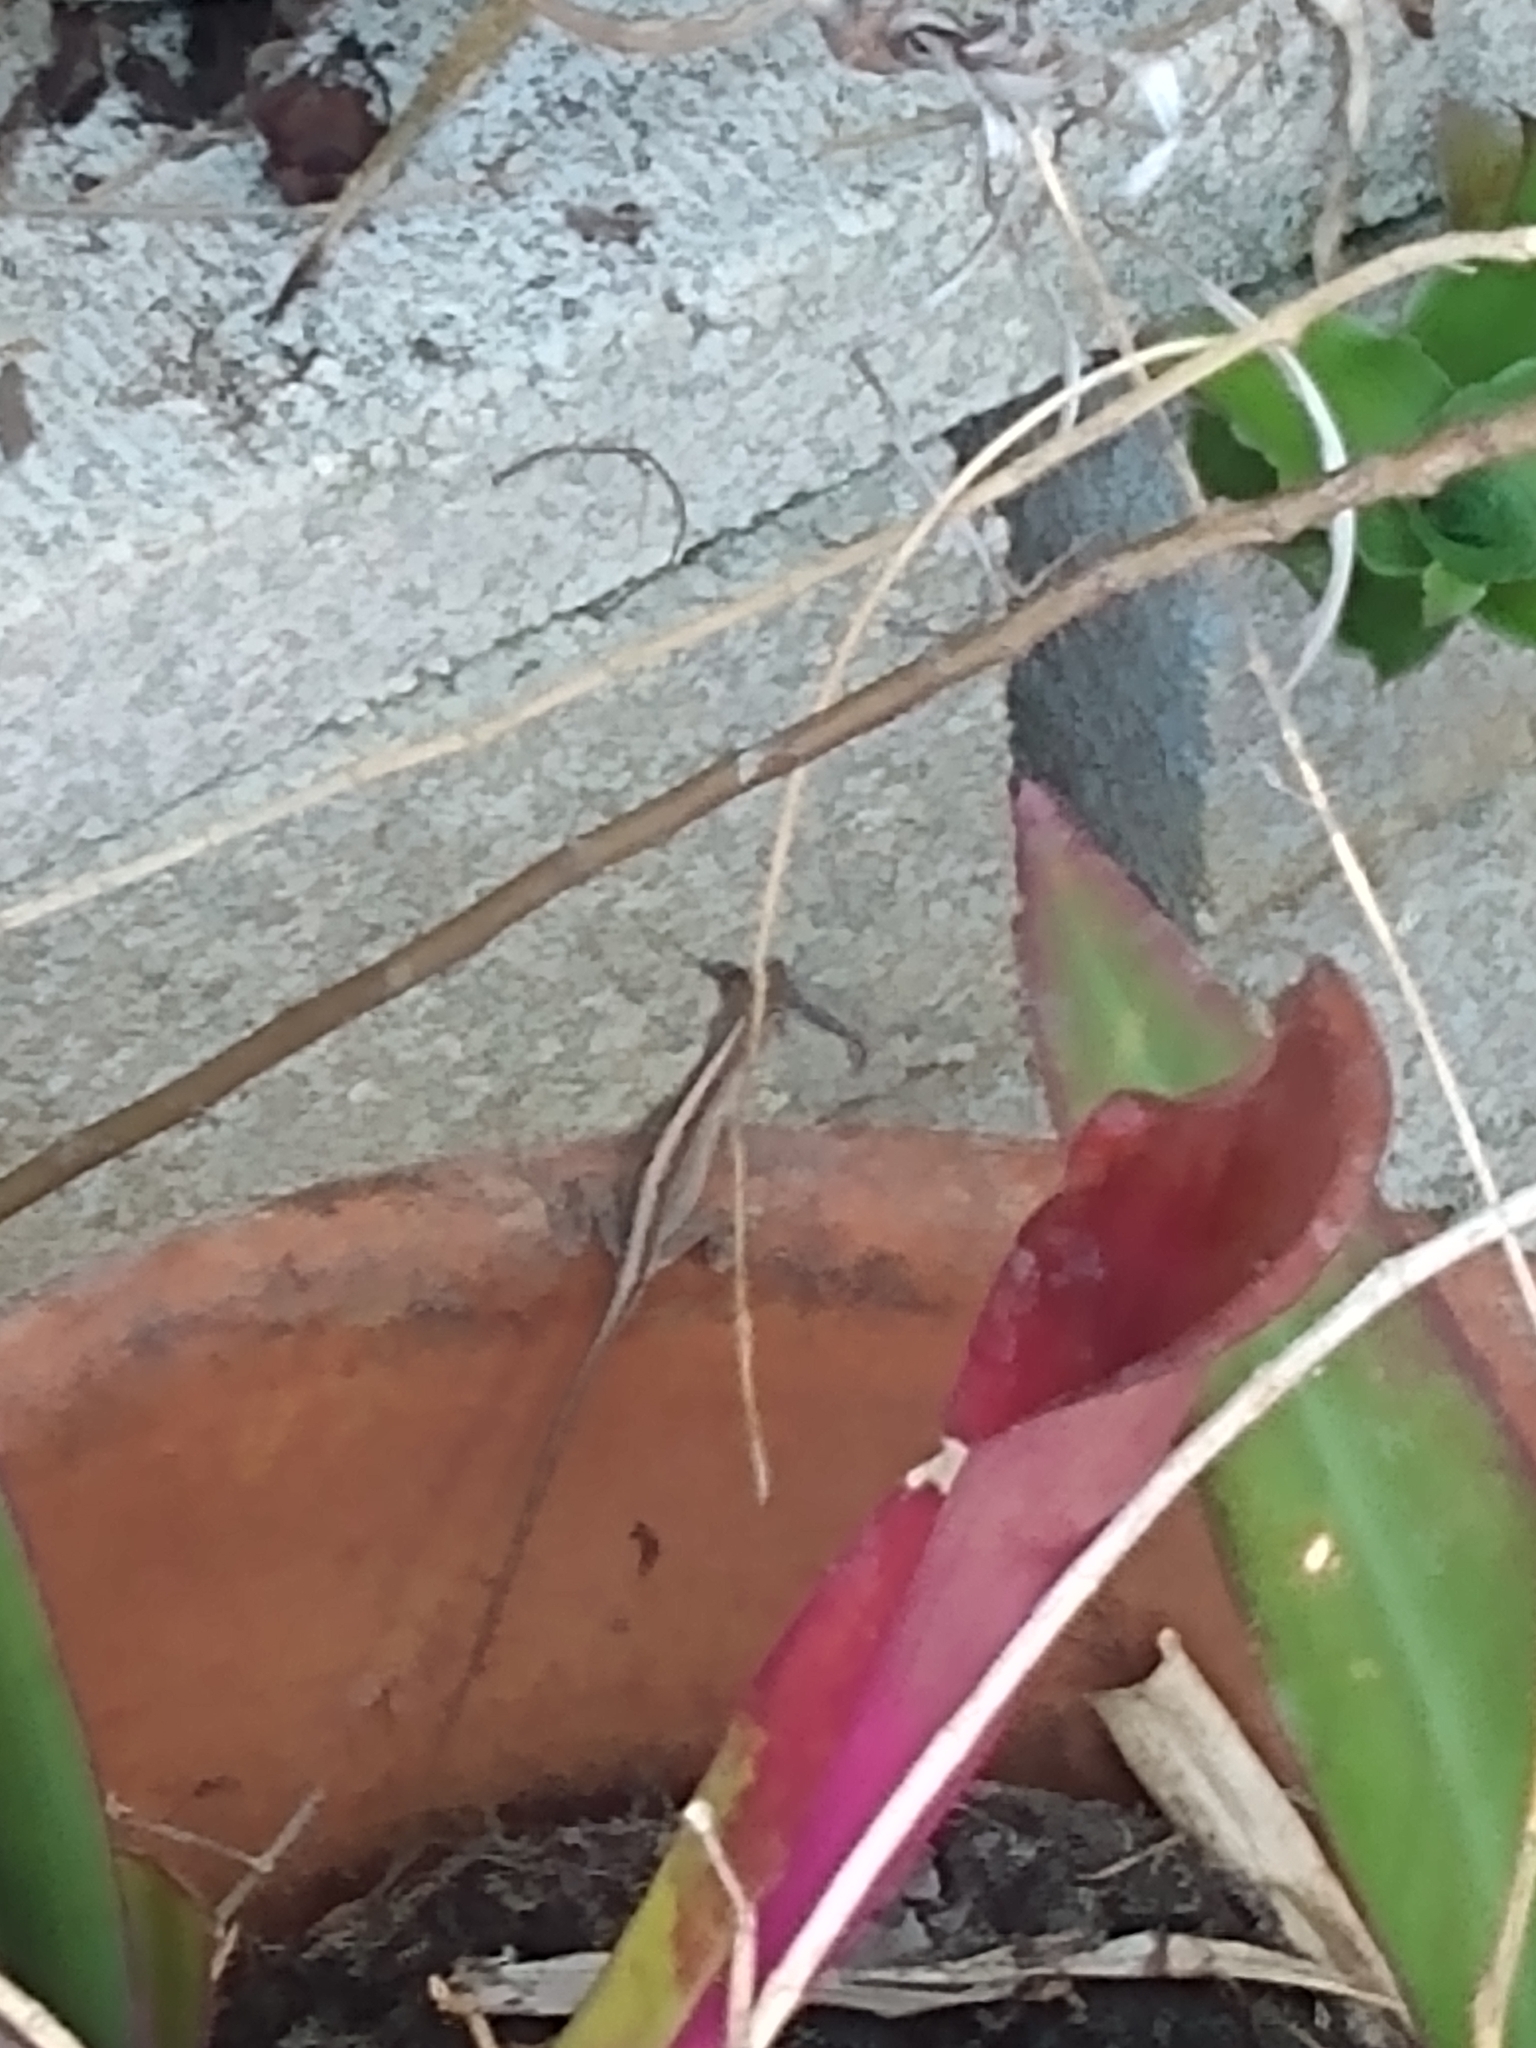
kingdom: Animalia
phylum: Chordata
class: Squamata
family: Dactyloidae
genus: Anolis
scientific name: Anolis sagrei
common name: Brown anole
